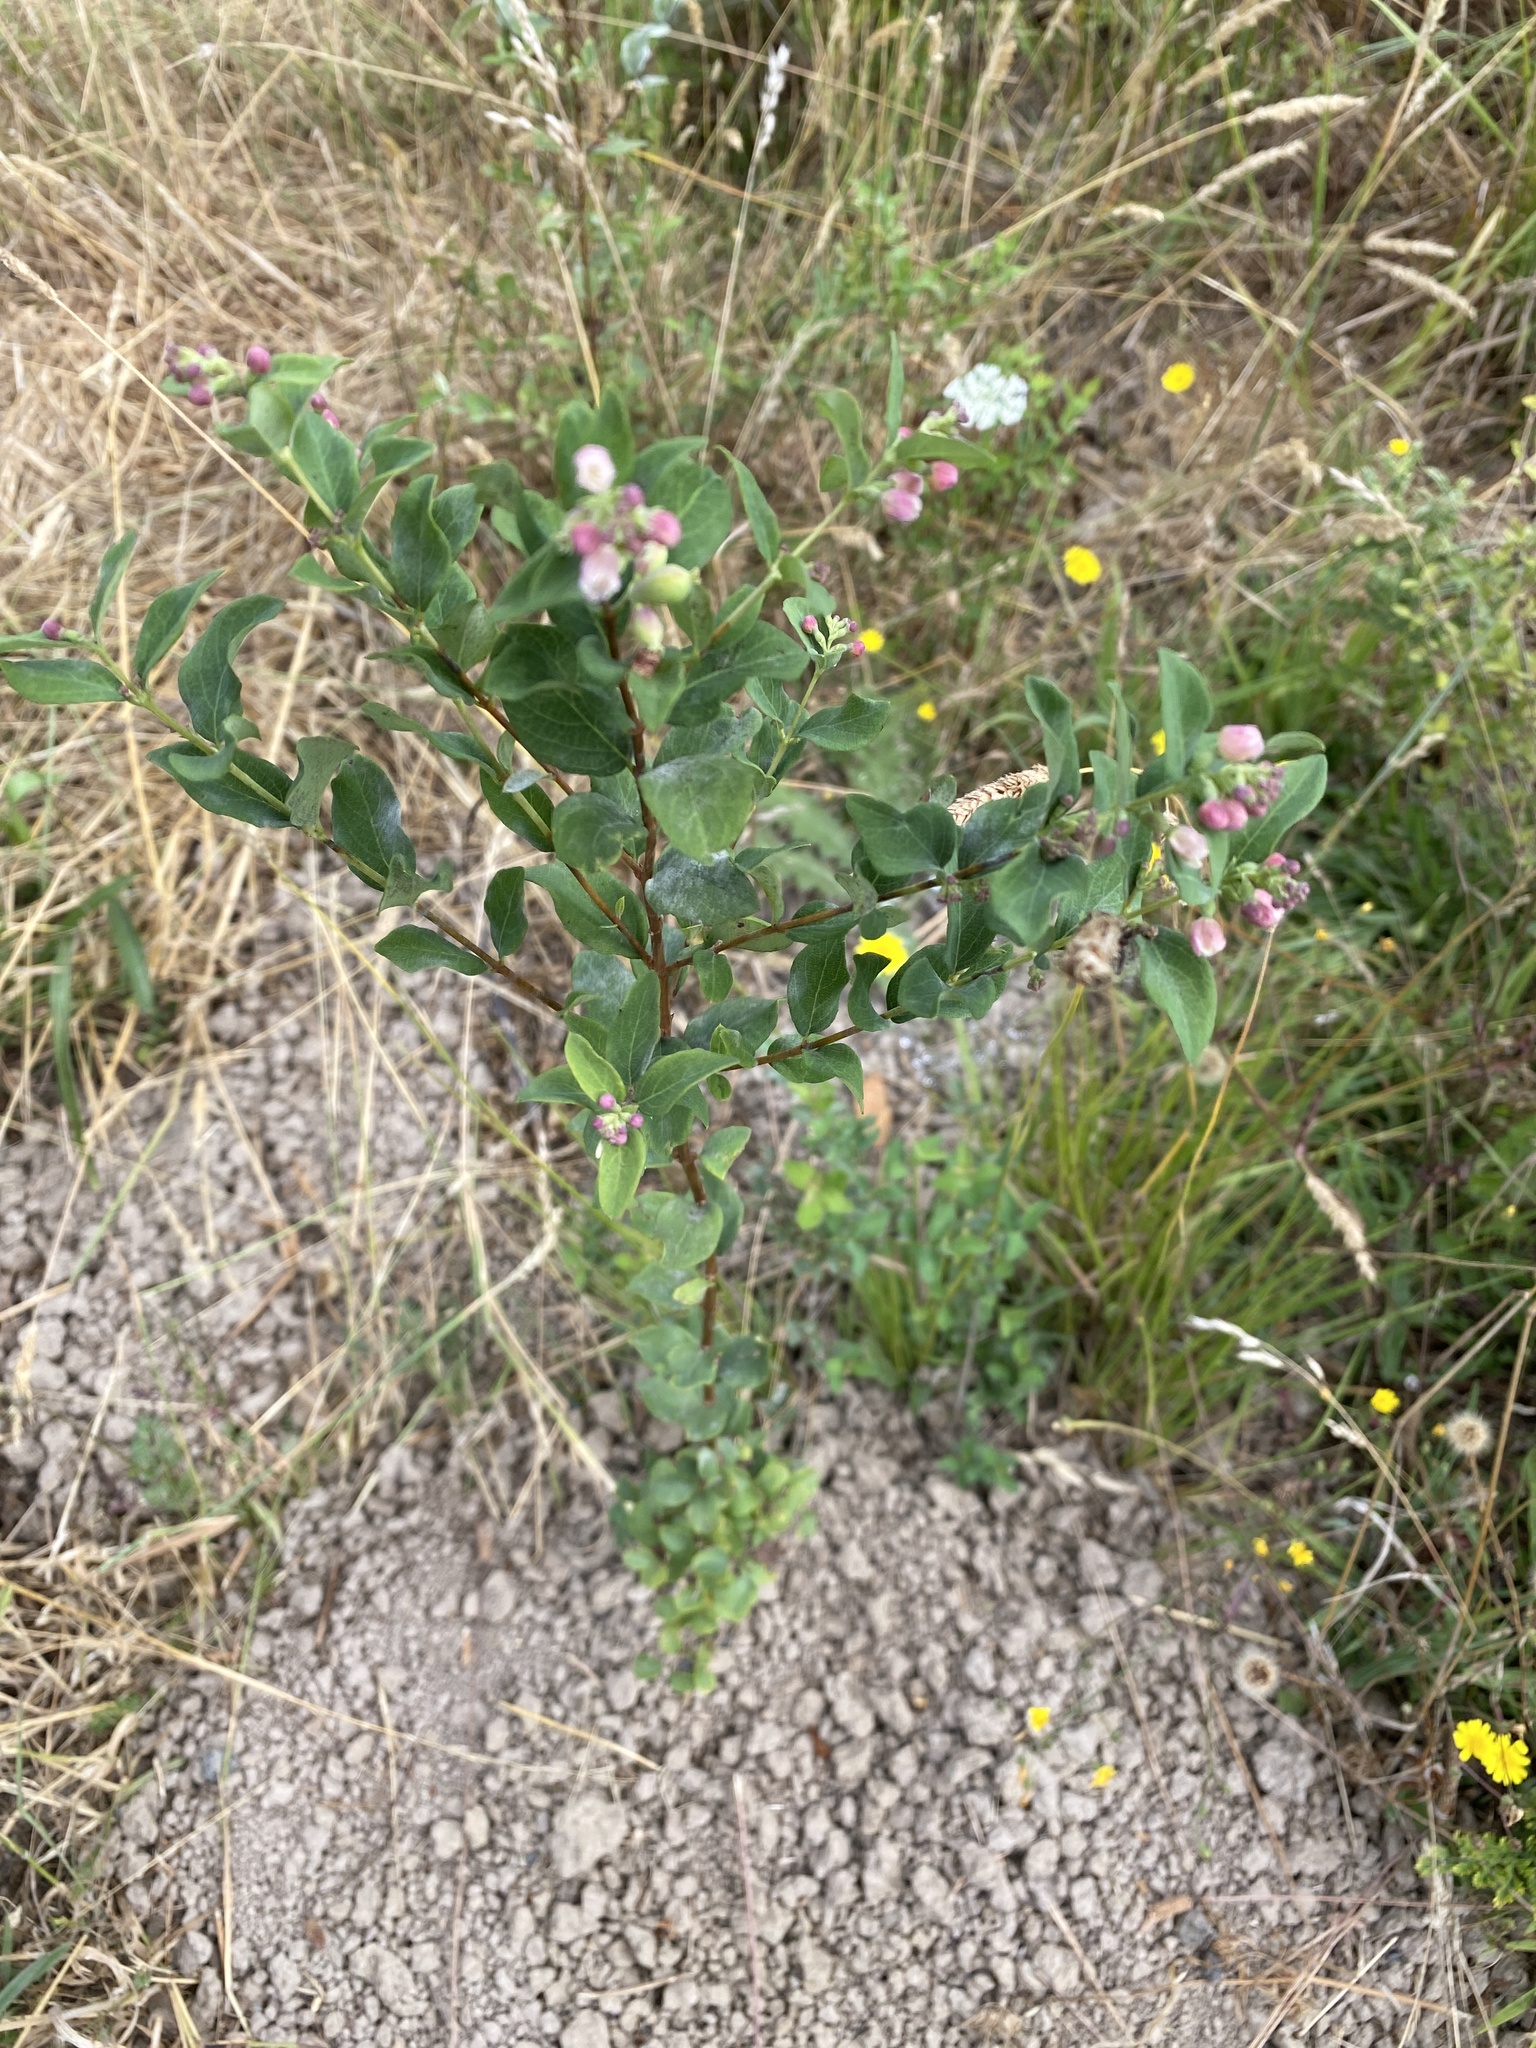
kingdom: Plantae
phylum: Tracheophyta
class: Magnoliopsida
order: Dipsacales
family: Caprifoliaceae
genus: Symphoricarpos
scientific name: Symphoricarpos albus
